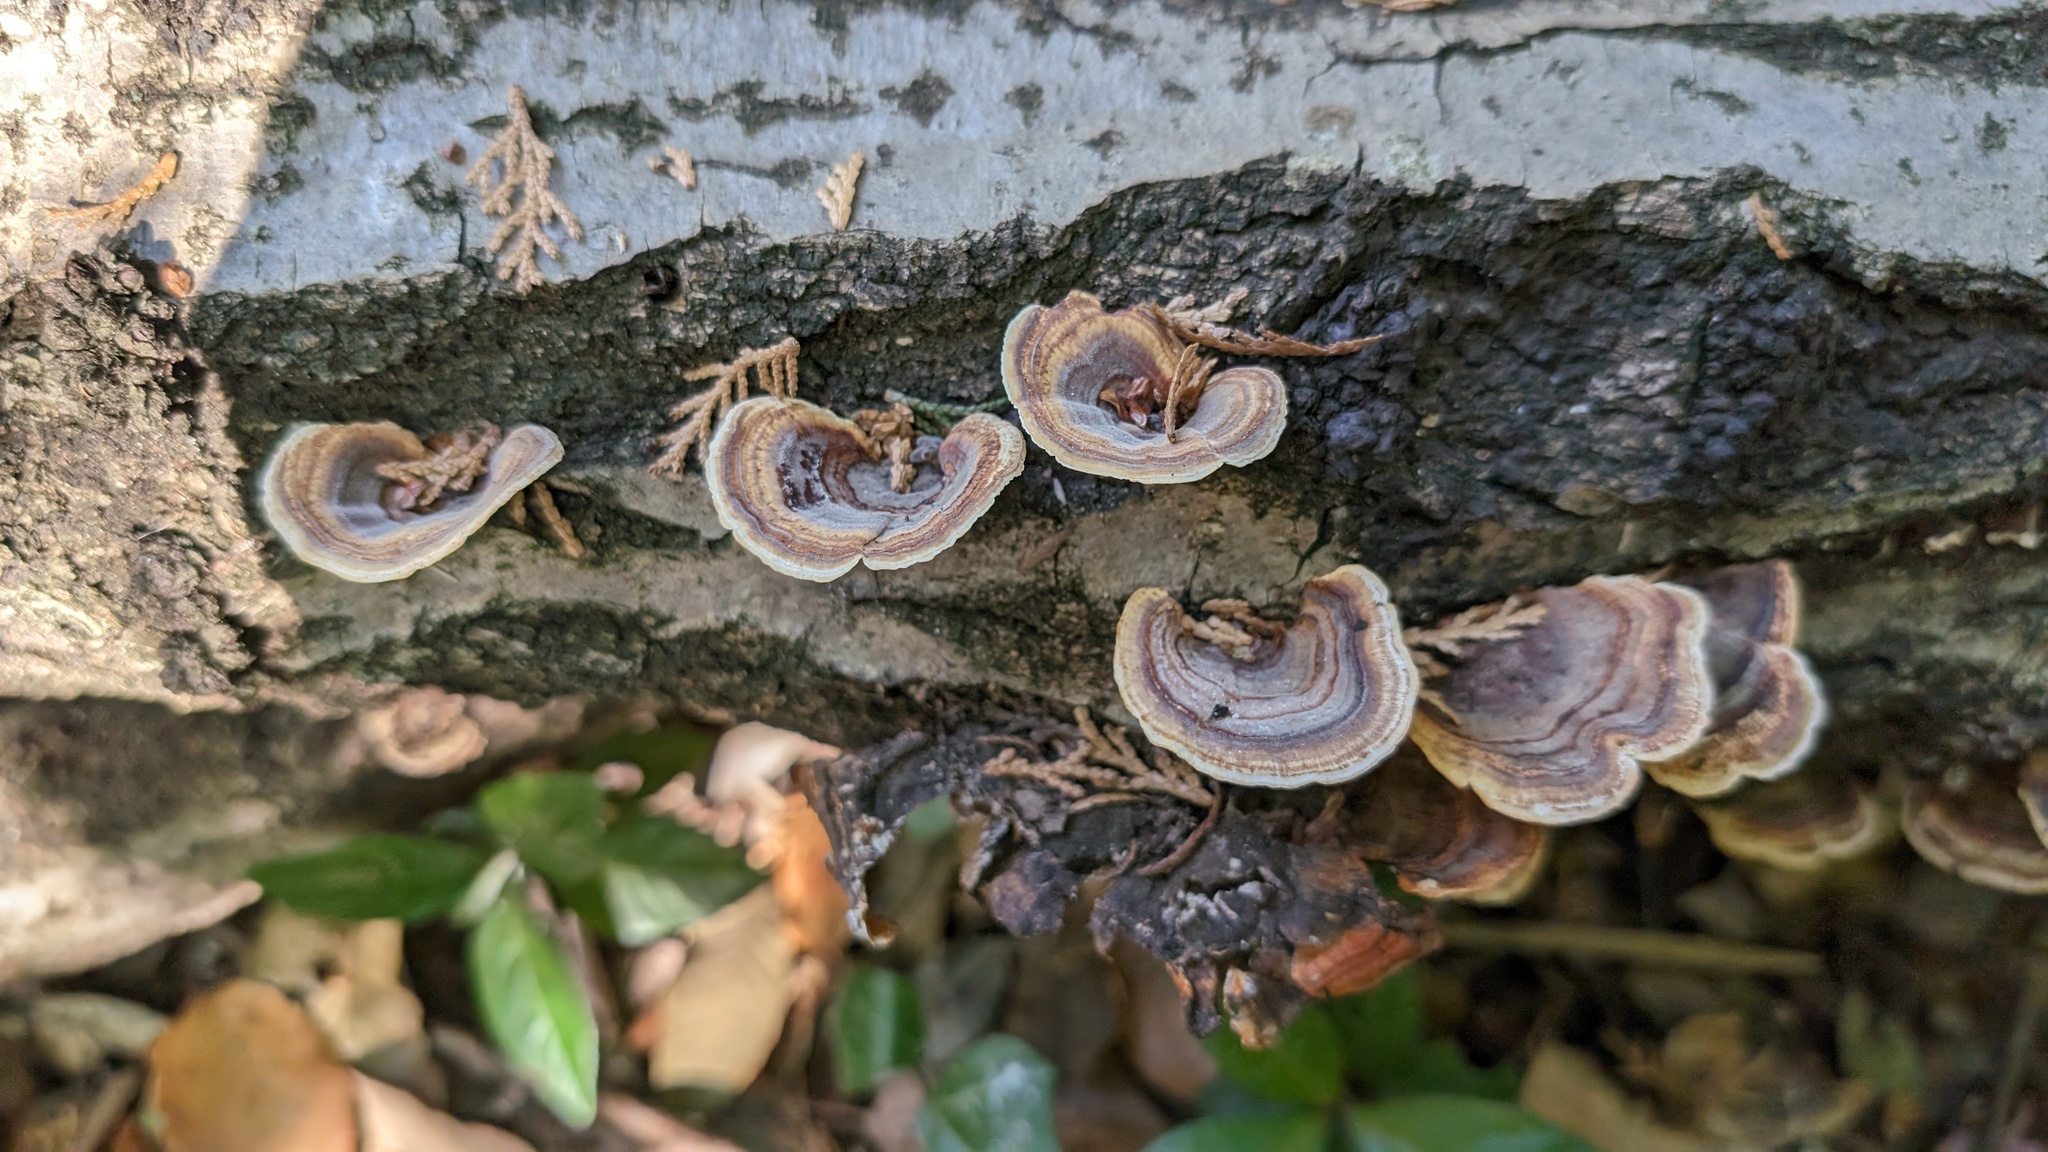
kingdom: Fungi
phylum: Basidiomycota
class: Agaricomycetes
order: Polyporales
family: Polyporaceae
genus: Microporus
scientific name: Microporus affinis
